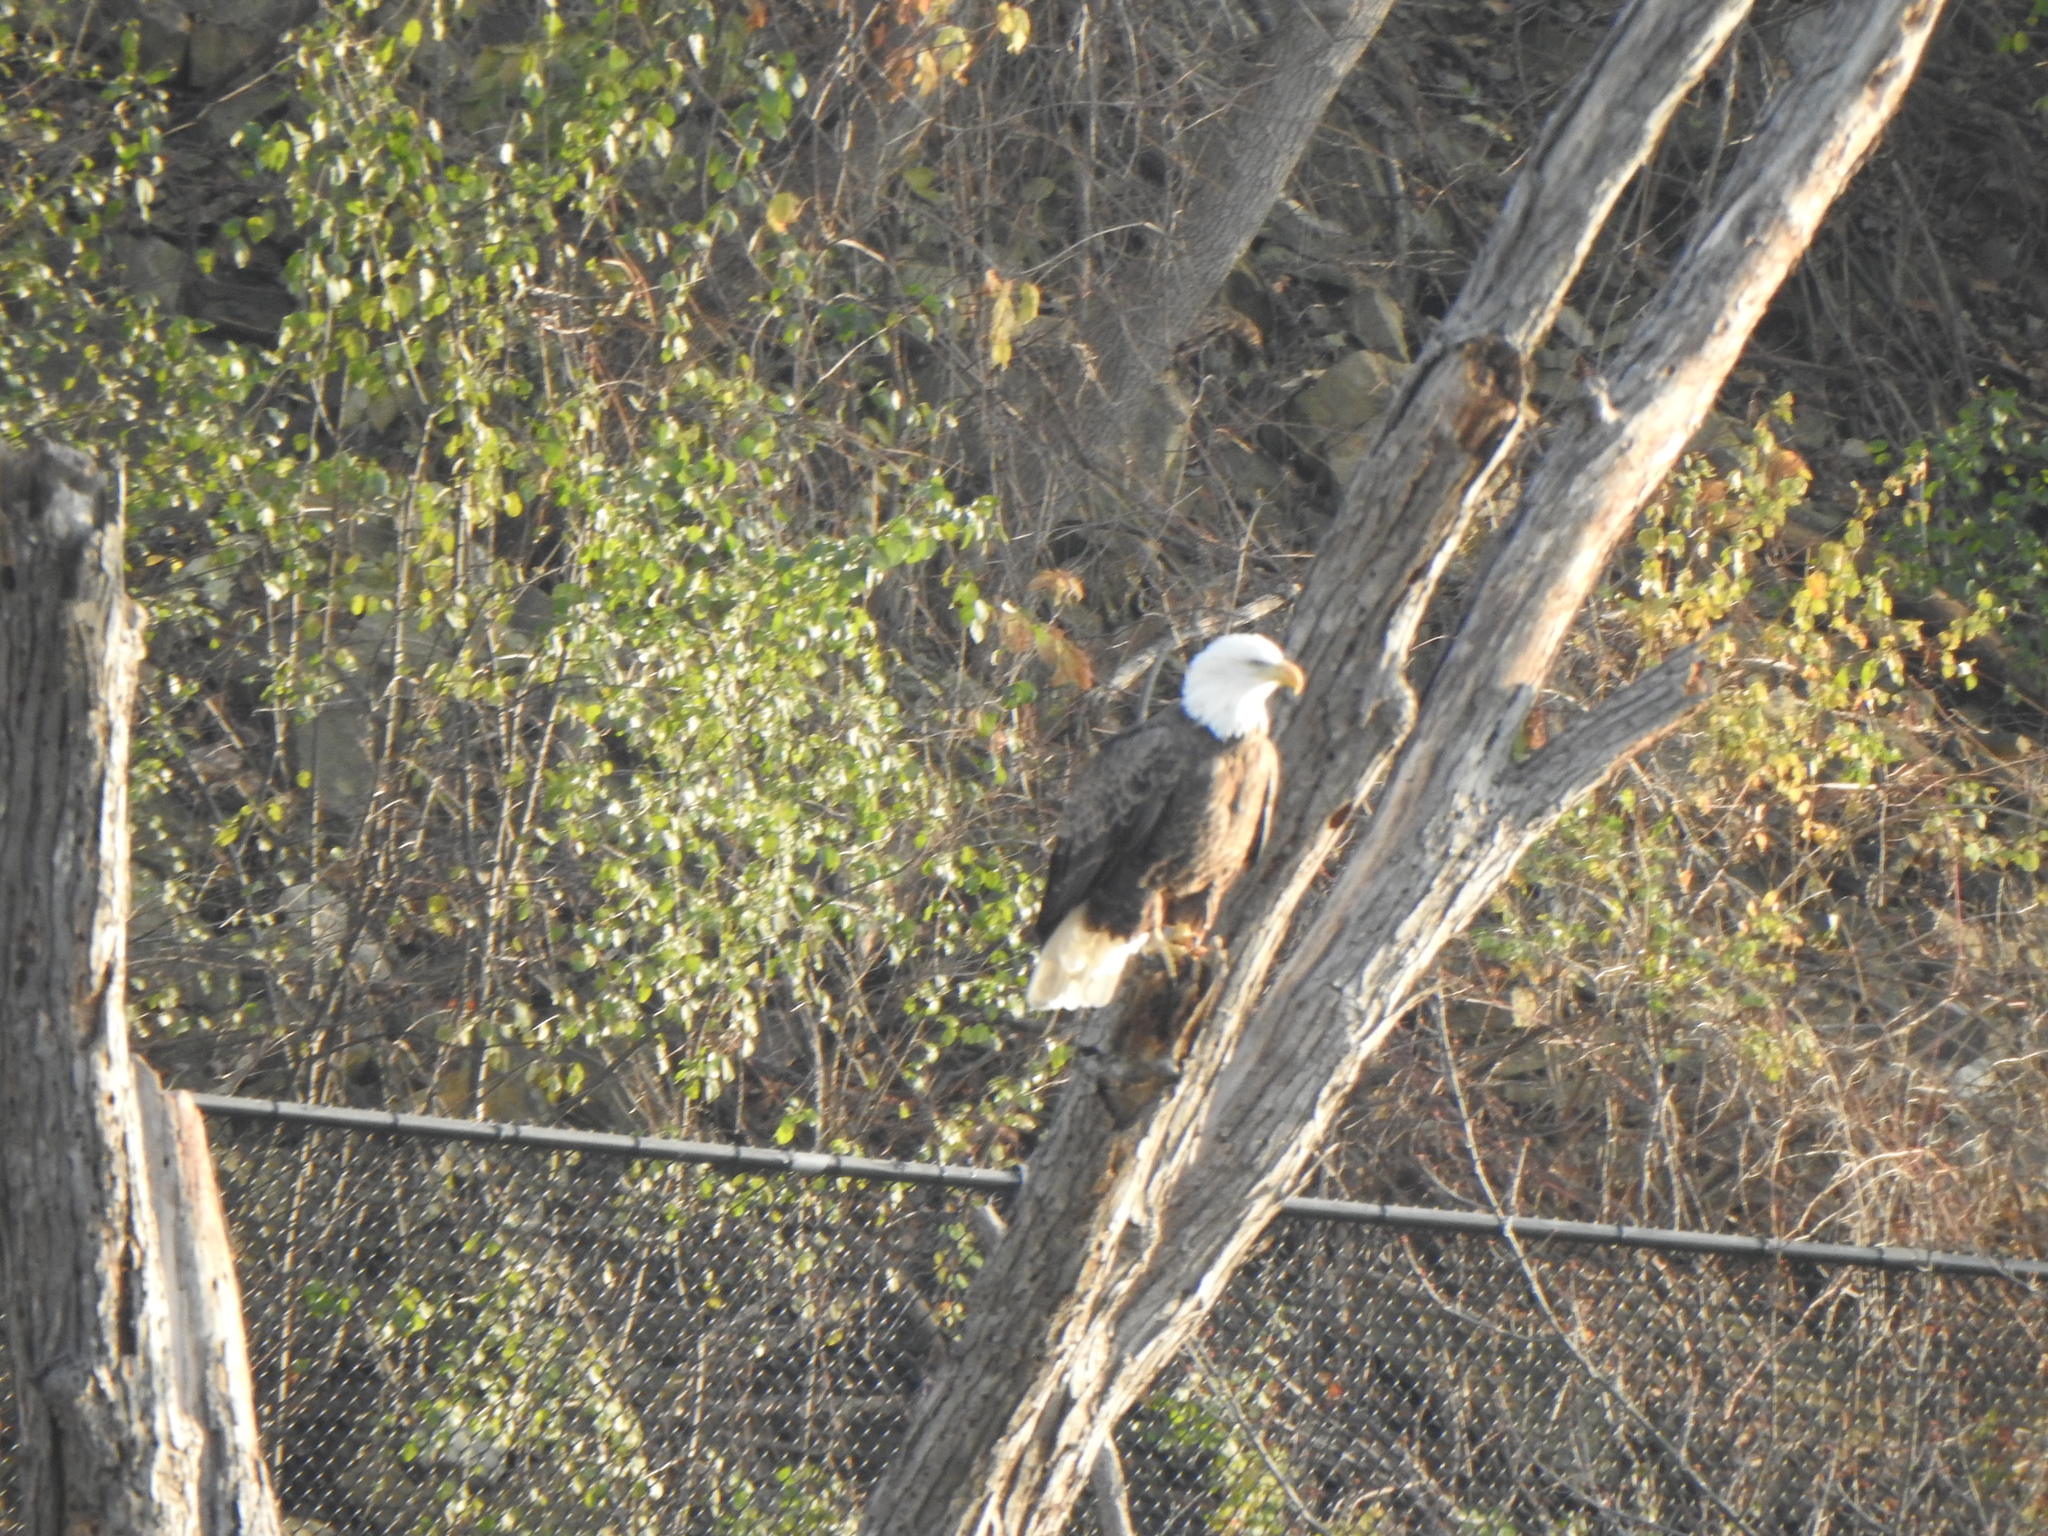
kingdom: Animalia
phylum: Chordata
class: Aves
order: Accipitriformes
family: Accipitridae
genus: Haliaeetus
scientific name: Haliaeetus leucocephalus
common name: Bald eagle
